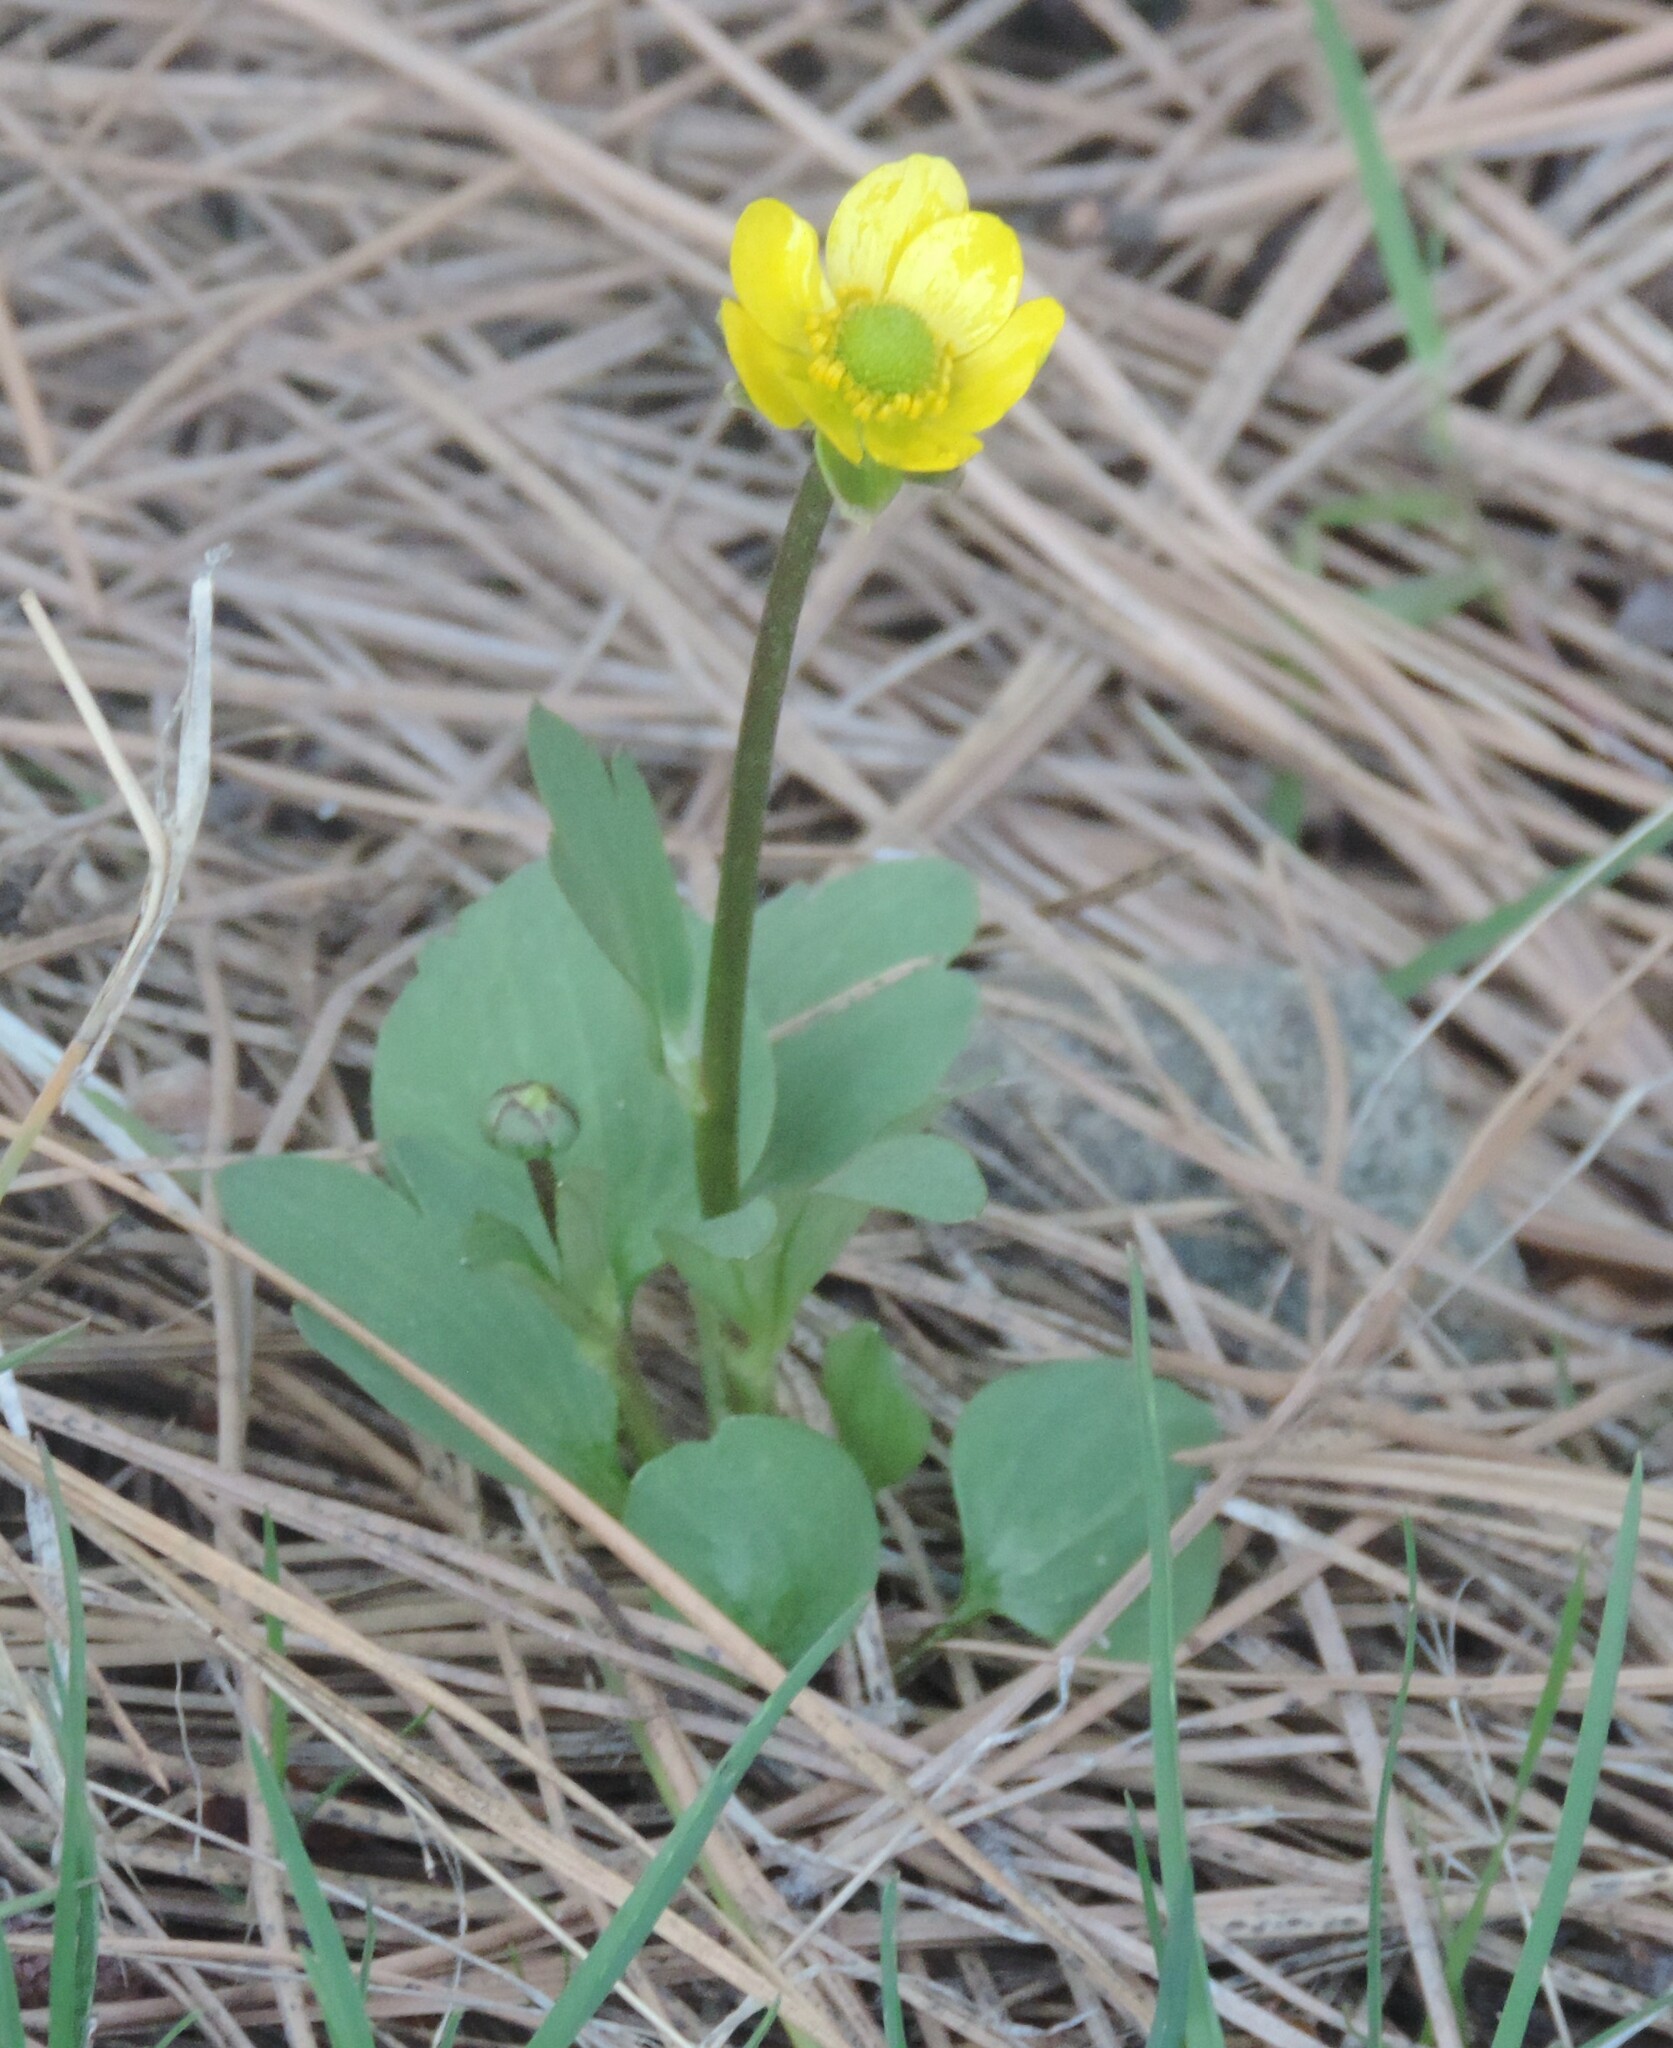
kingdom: Plantae
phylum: Tracheophyta
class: Magnoliopsida
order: Ranunculales
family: Ranunculaceae
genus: Ranunculus
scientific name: Ranunculus glaberrimus
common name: Sagebrush buttercup
